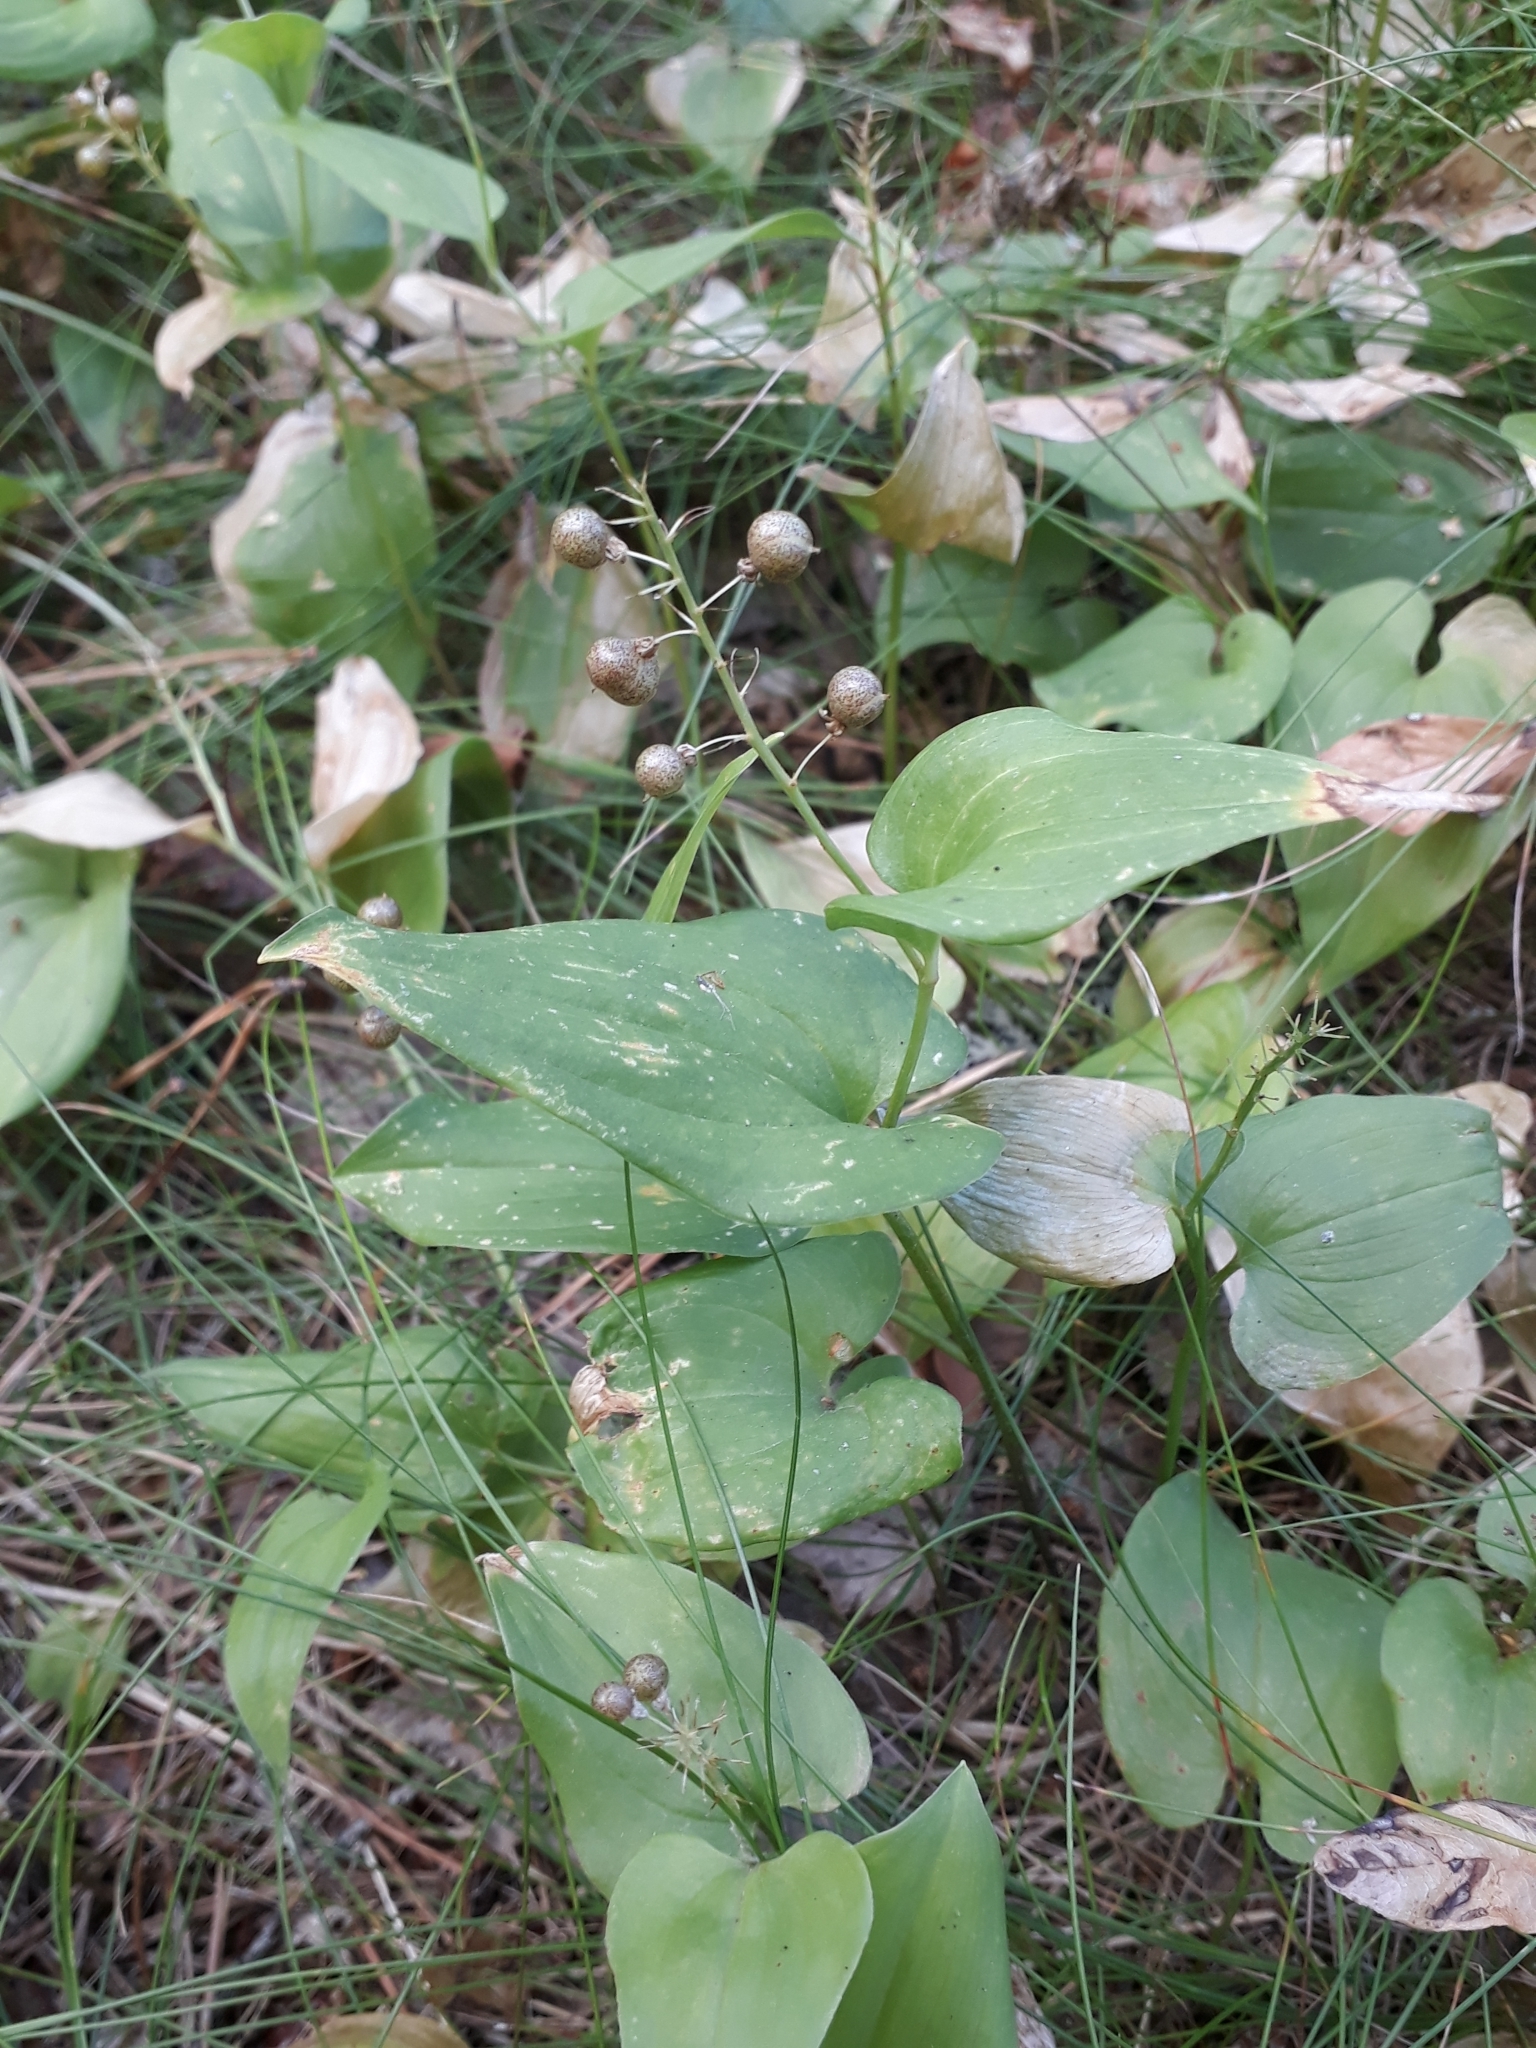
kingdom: Plantae
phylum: Tracheophyta
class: Liliopsida
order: Asparagales
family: Asparagaceae
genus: Maianthemum
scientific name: Maianthemum bifolium
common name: May lily
